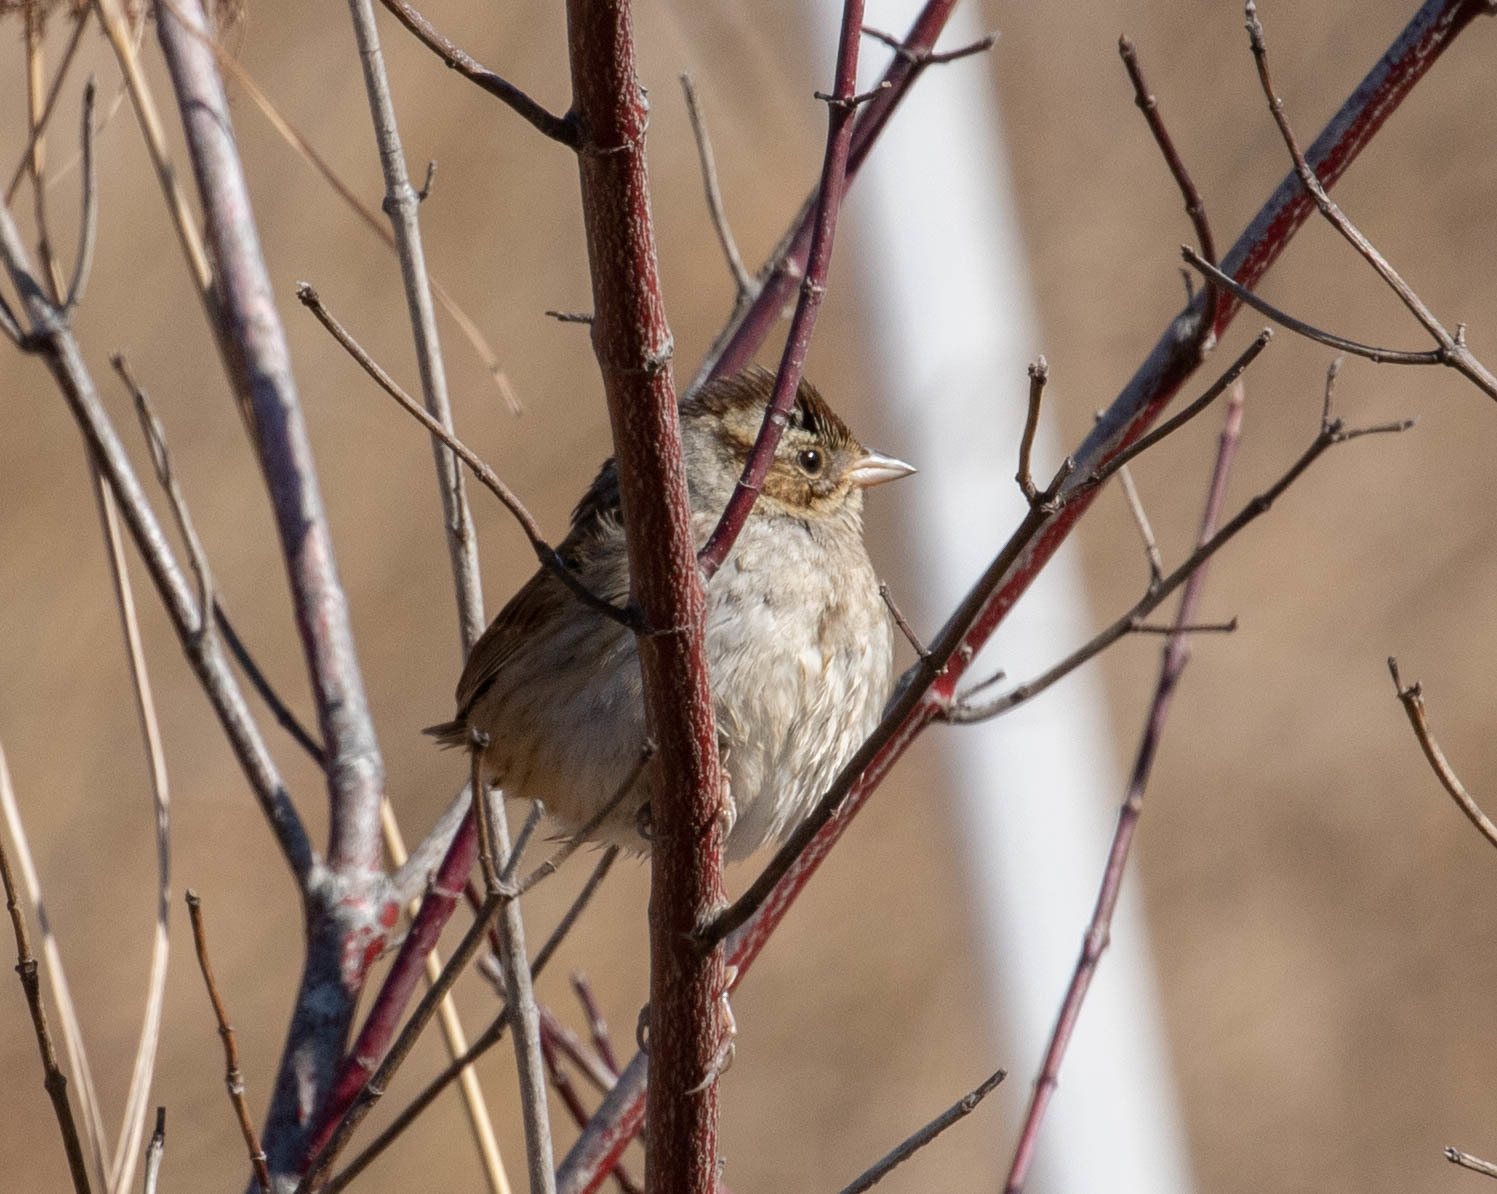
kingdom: Animalia
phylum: Chordata
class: Aves
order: Passeriformes
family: Passerellidae
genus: Melospiza
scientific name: Melospiza georgiana
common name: Swamp sparrow
